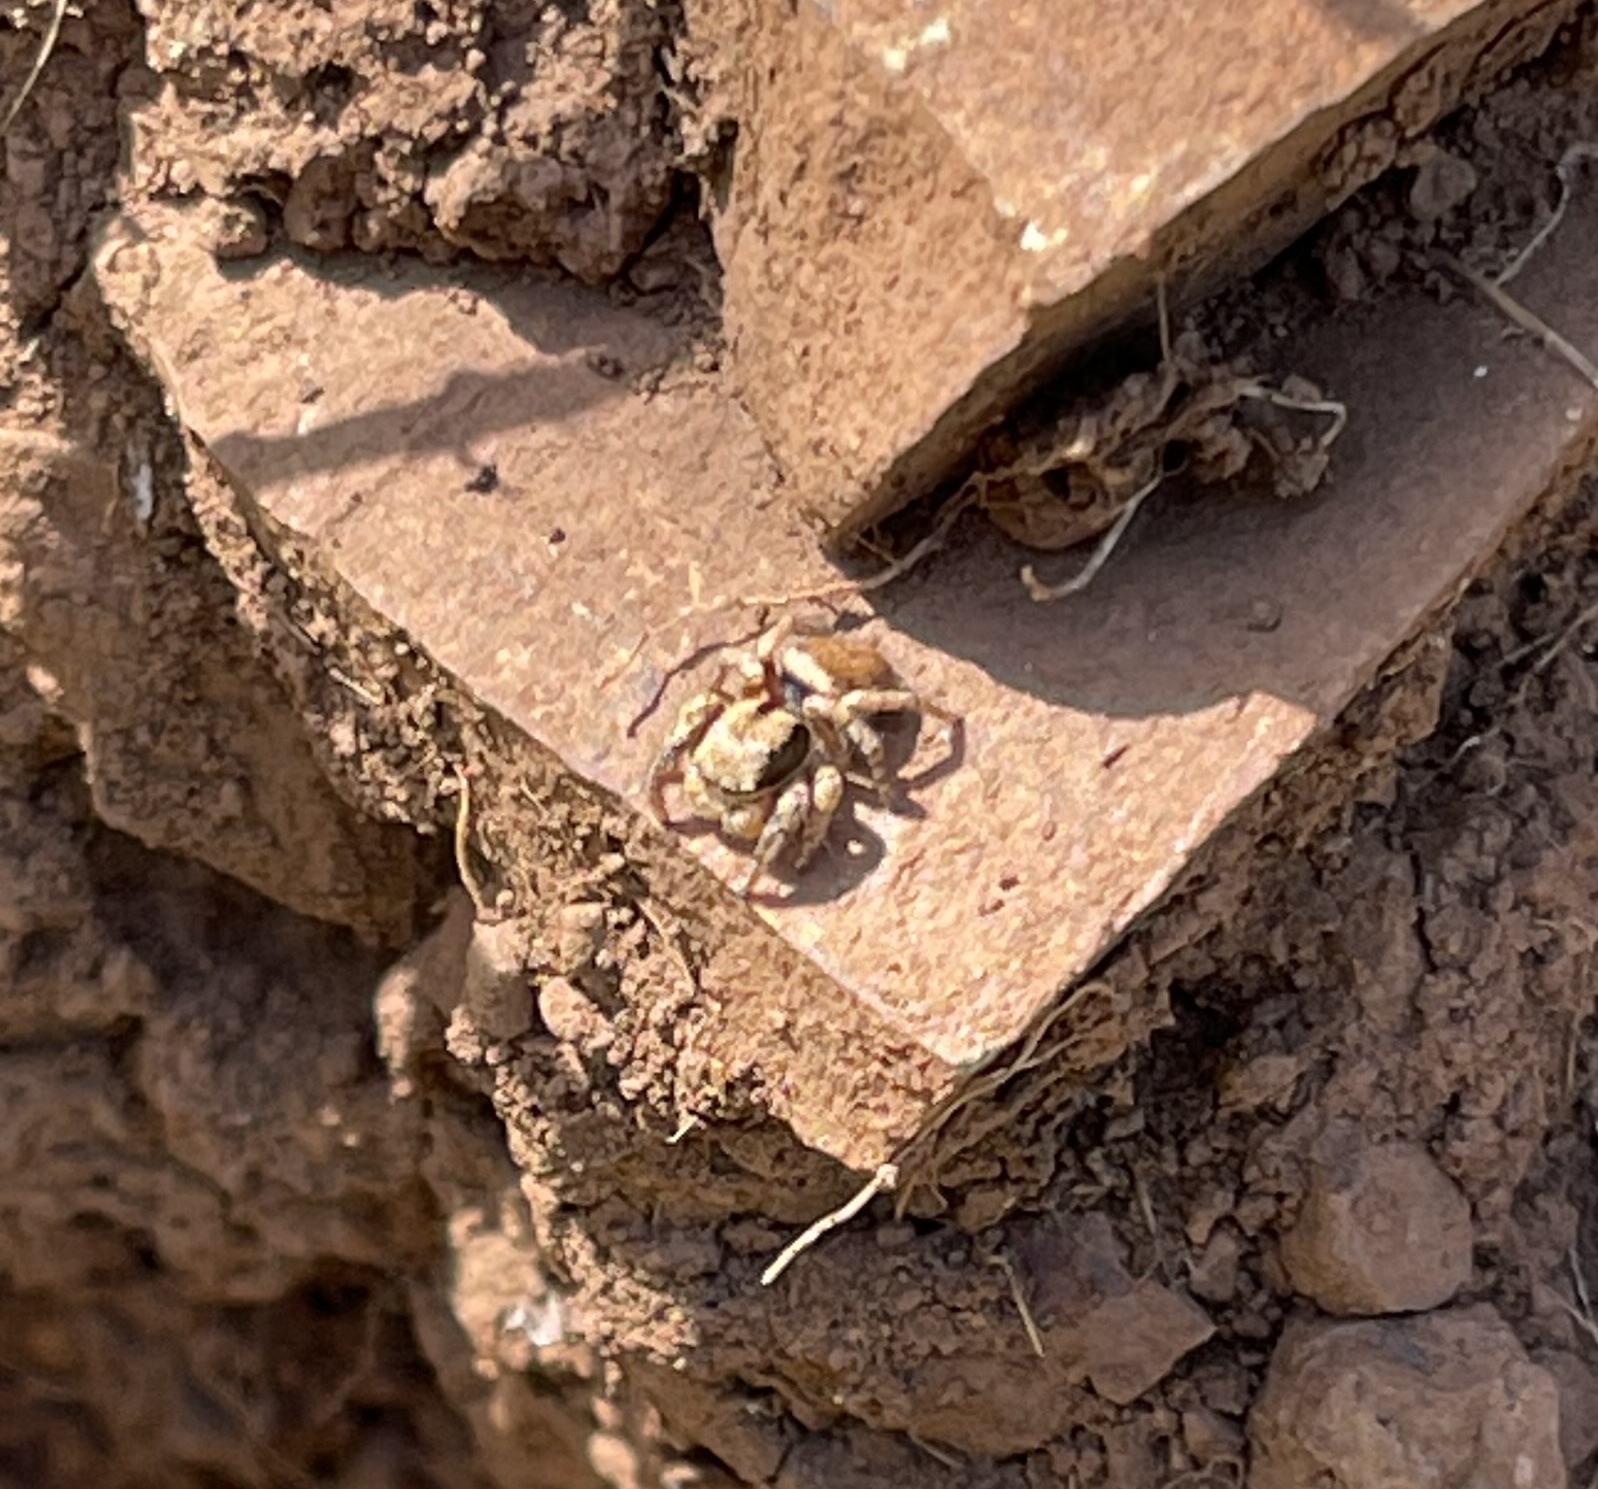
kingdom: Animalia
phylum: Arthropoda
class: Arachnida
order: Araneae
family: Salticidae
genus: Habronattus
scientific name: Habronattus oregonensis
